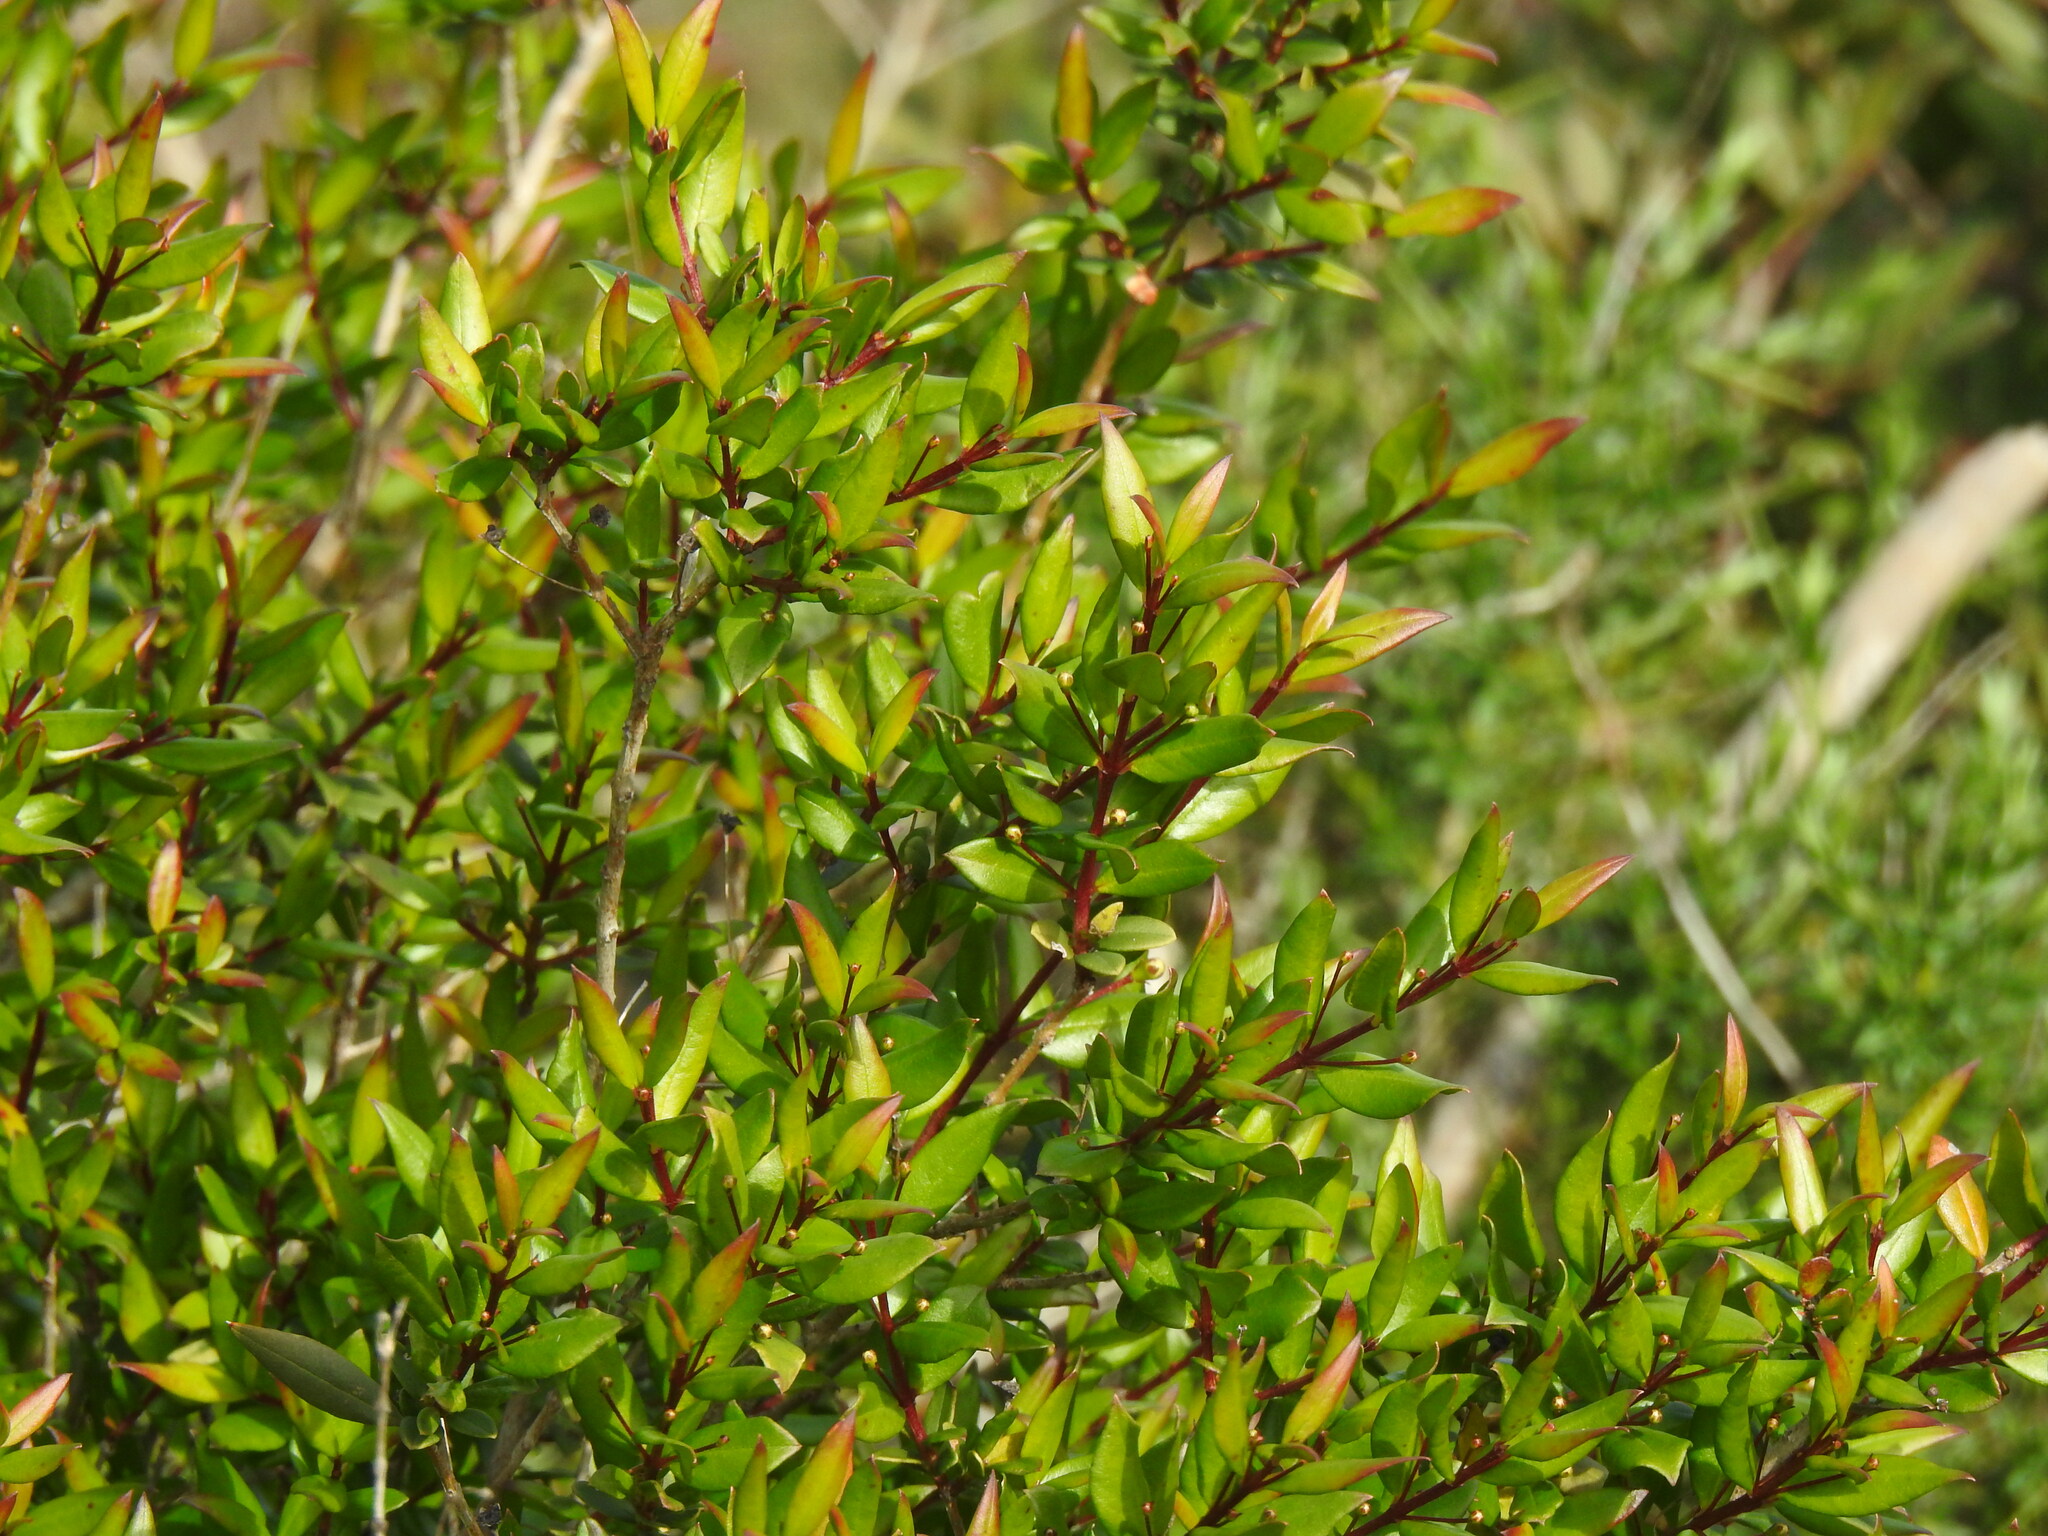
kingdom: Plantae
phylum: Tracheophyta
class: Magnoliopsida
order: Myrtales
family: Myrtaceae
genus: Myrtus
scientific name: Myrtus communis
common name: Myrtle
